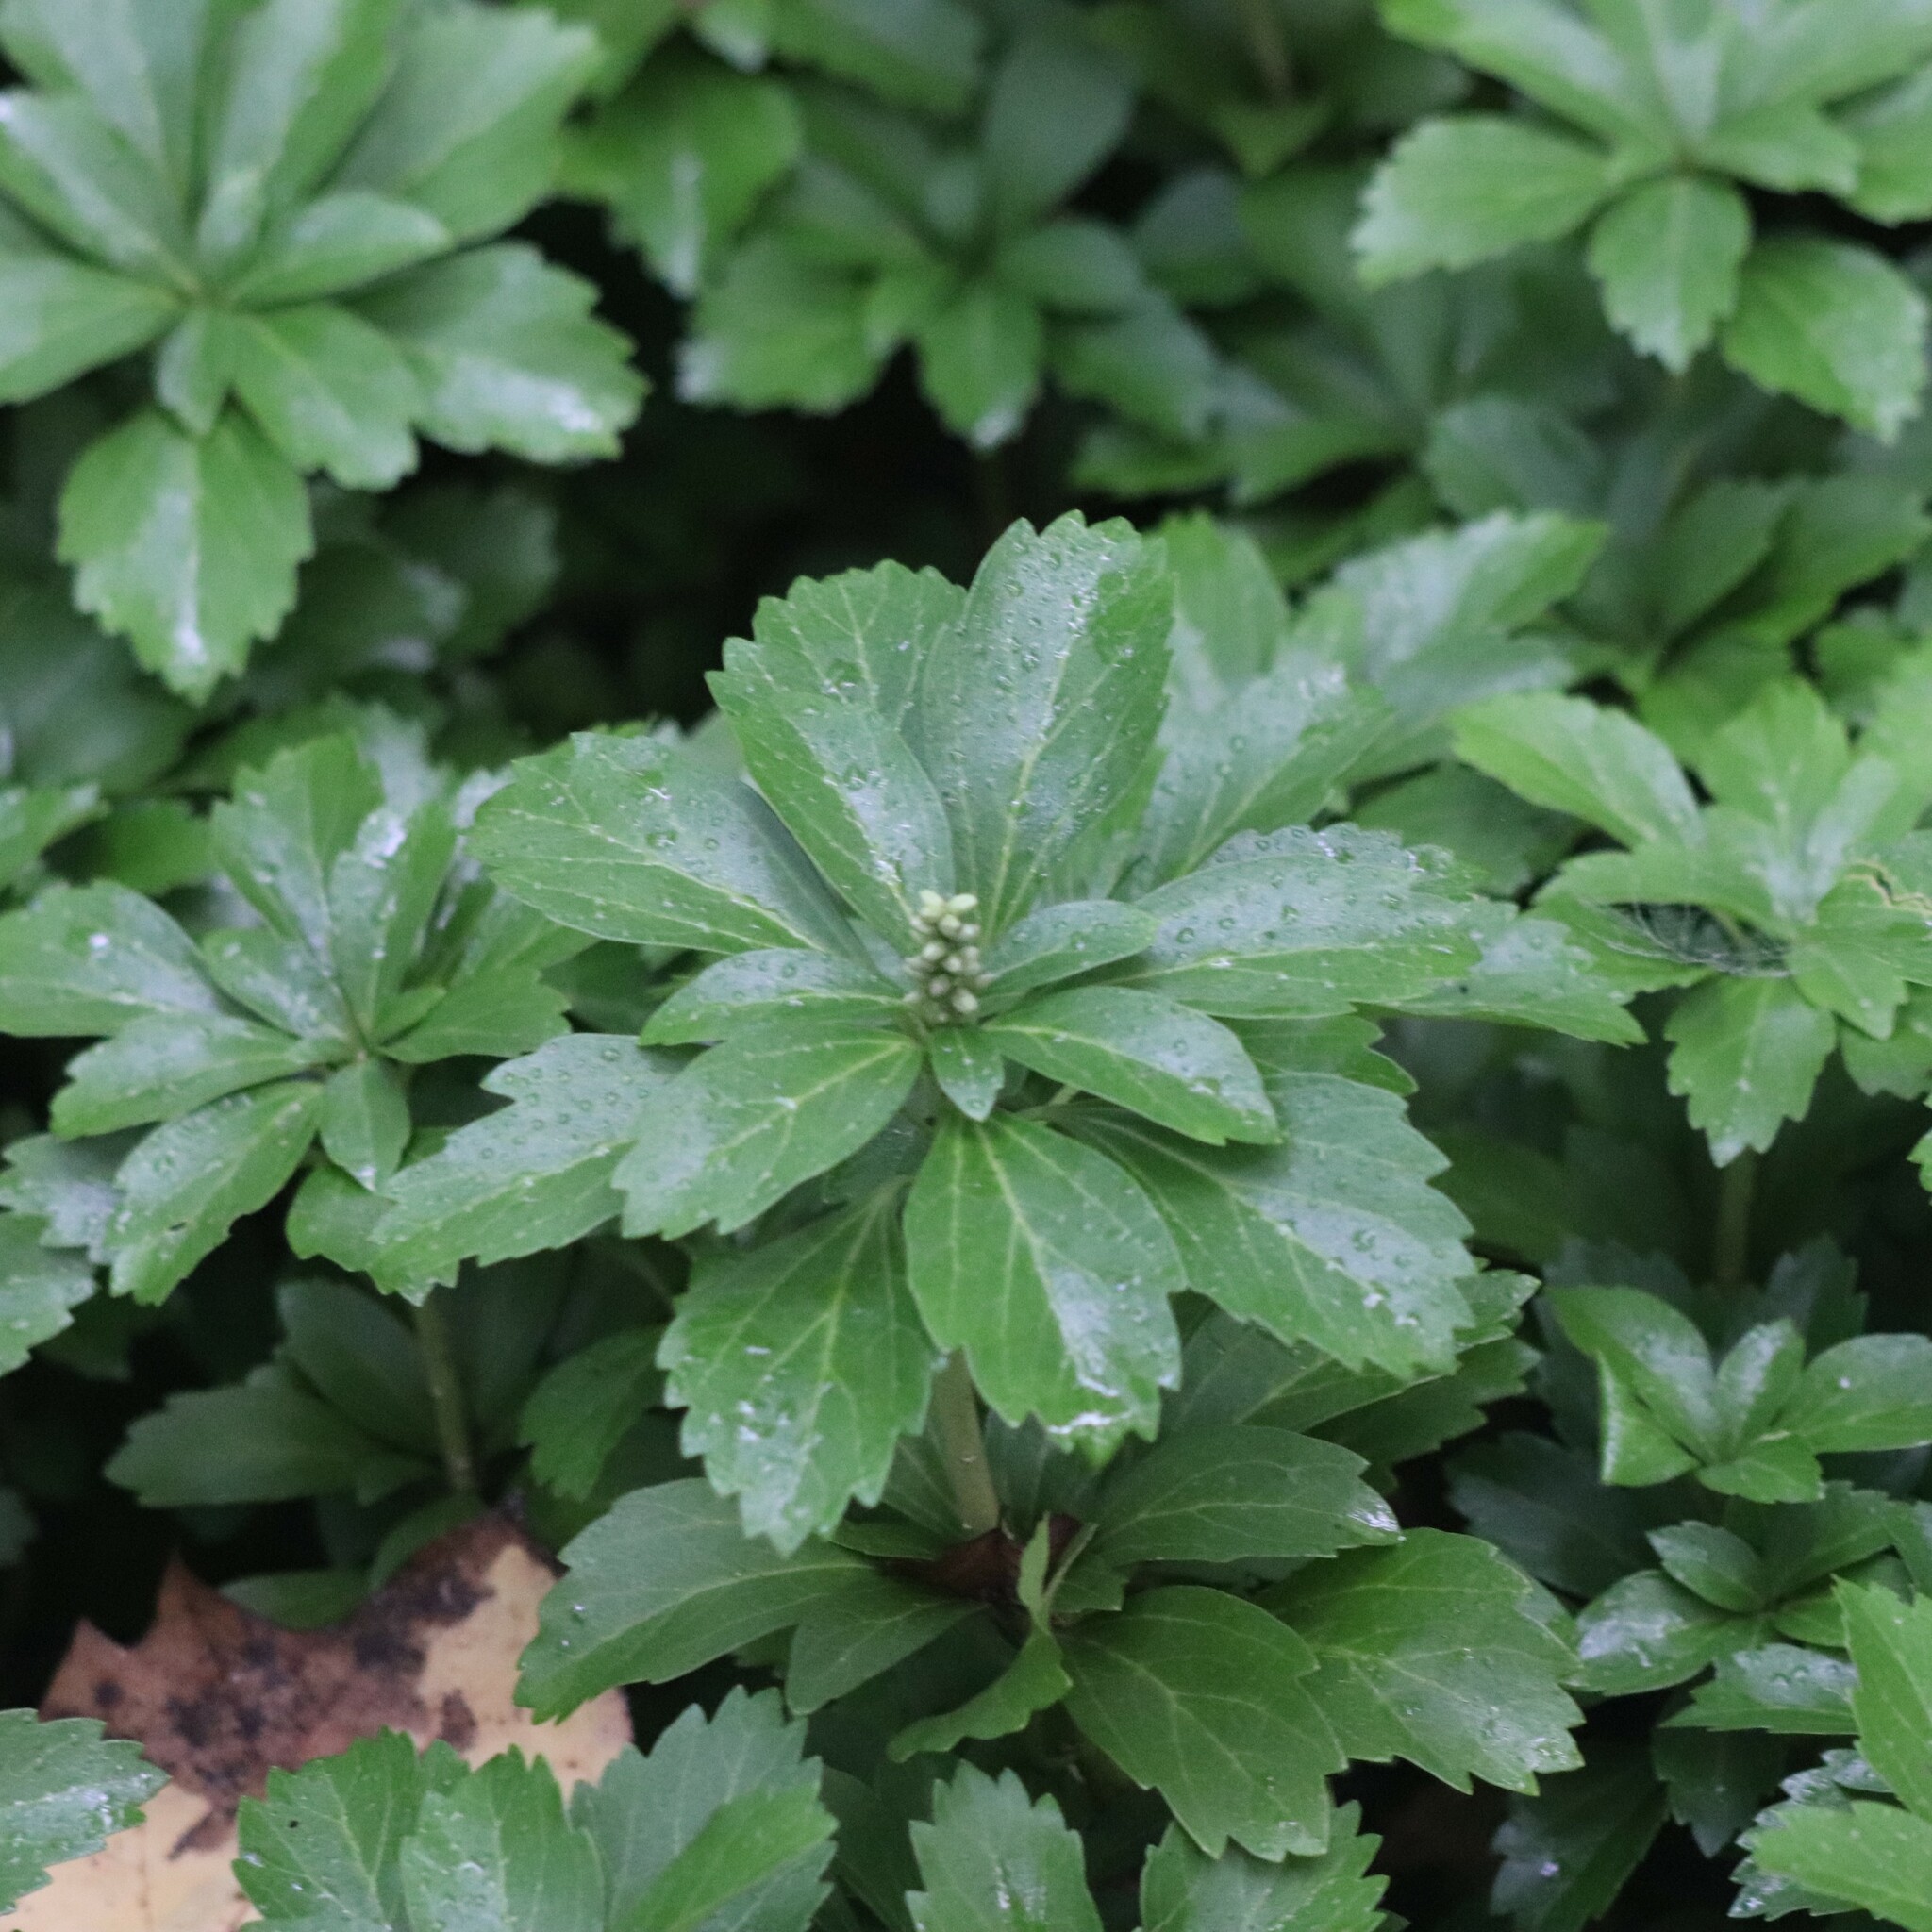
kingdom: Plantae
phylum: Tracheophyta
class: Magnoliopsida
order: Buxales
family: Buxaceae
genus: Pachysandra
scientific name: Pachysandra terminalis
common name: Japanese pachysandra
